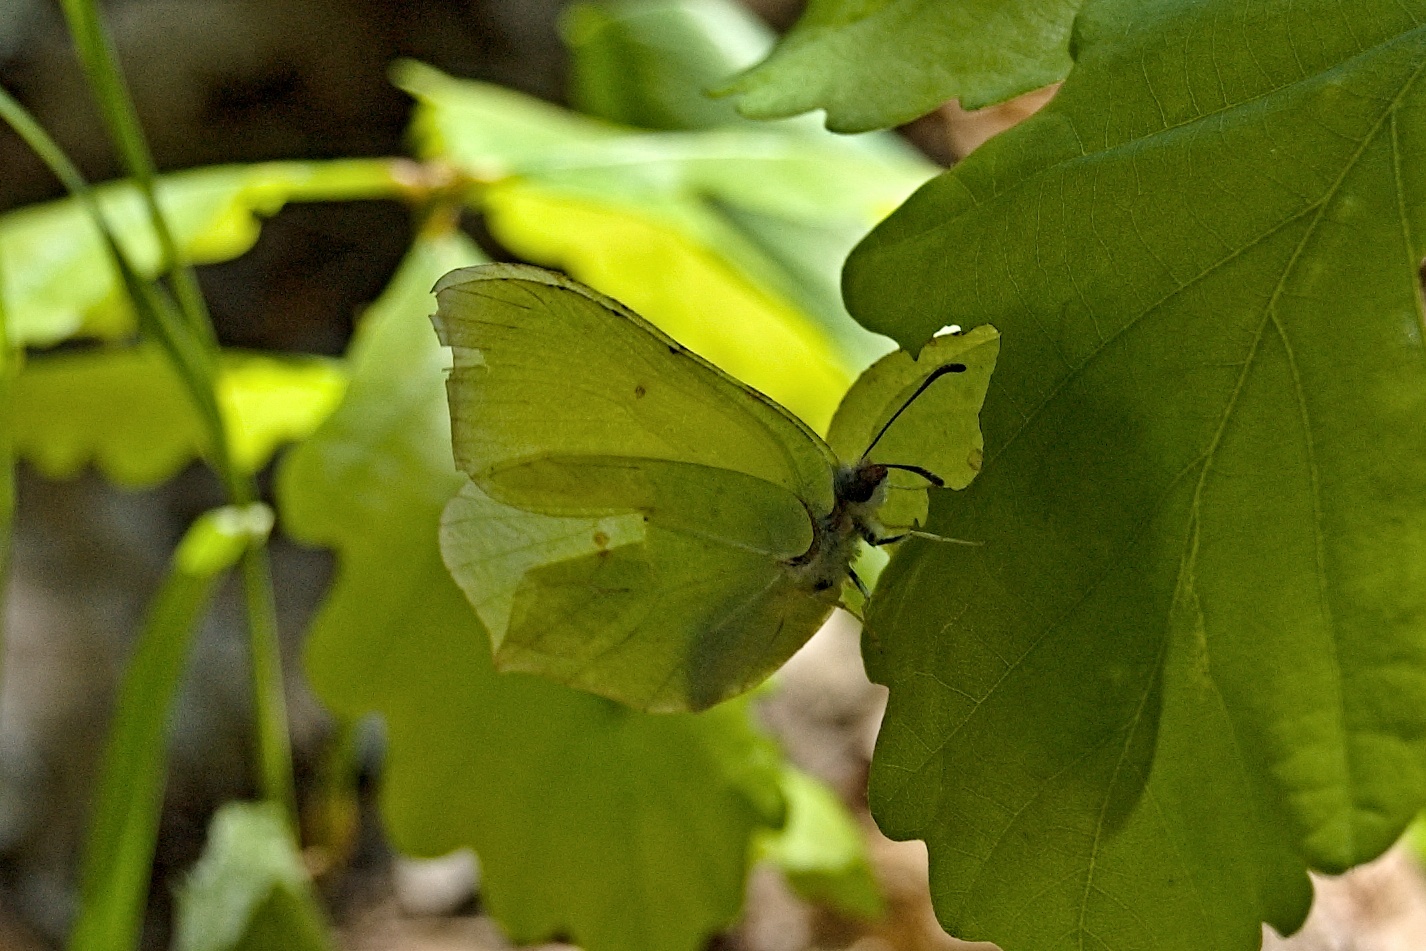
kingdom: Animalia
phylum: Arthropoda
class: Insecta
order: Lepidoptera
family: Pieridae
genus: Gonepteryx
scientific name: Gonepteryx rhamni
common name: Brimstone
